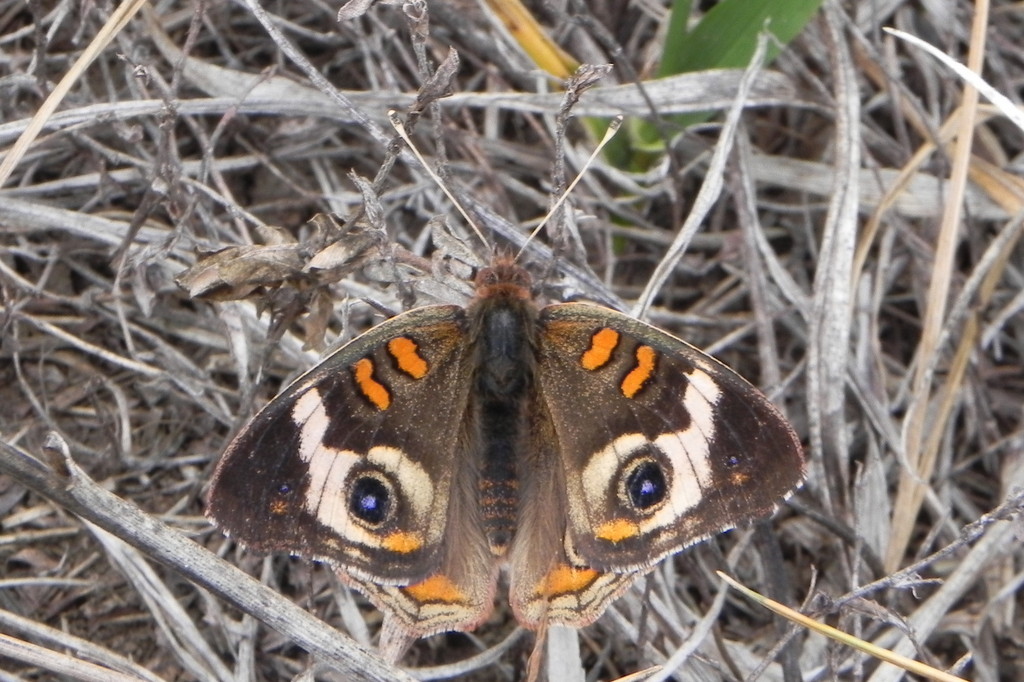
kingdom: Animalia
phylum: Arthropoda
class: Insecta
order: Lepidoptera
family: Nymphalidae
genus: Junonia
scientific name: Junonia coenia
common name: Common buckeye
